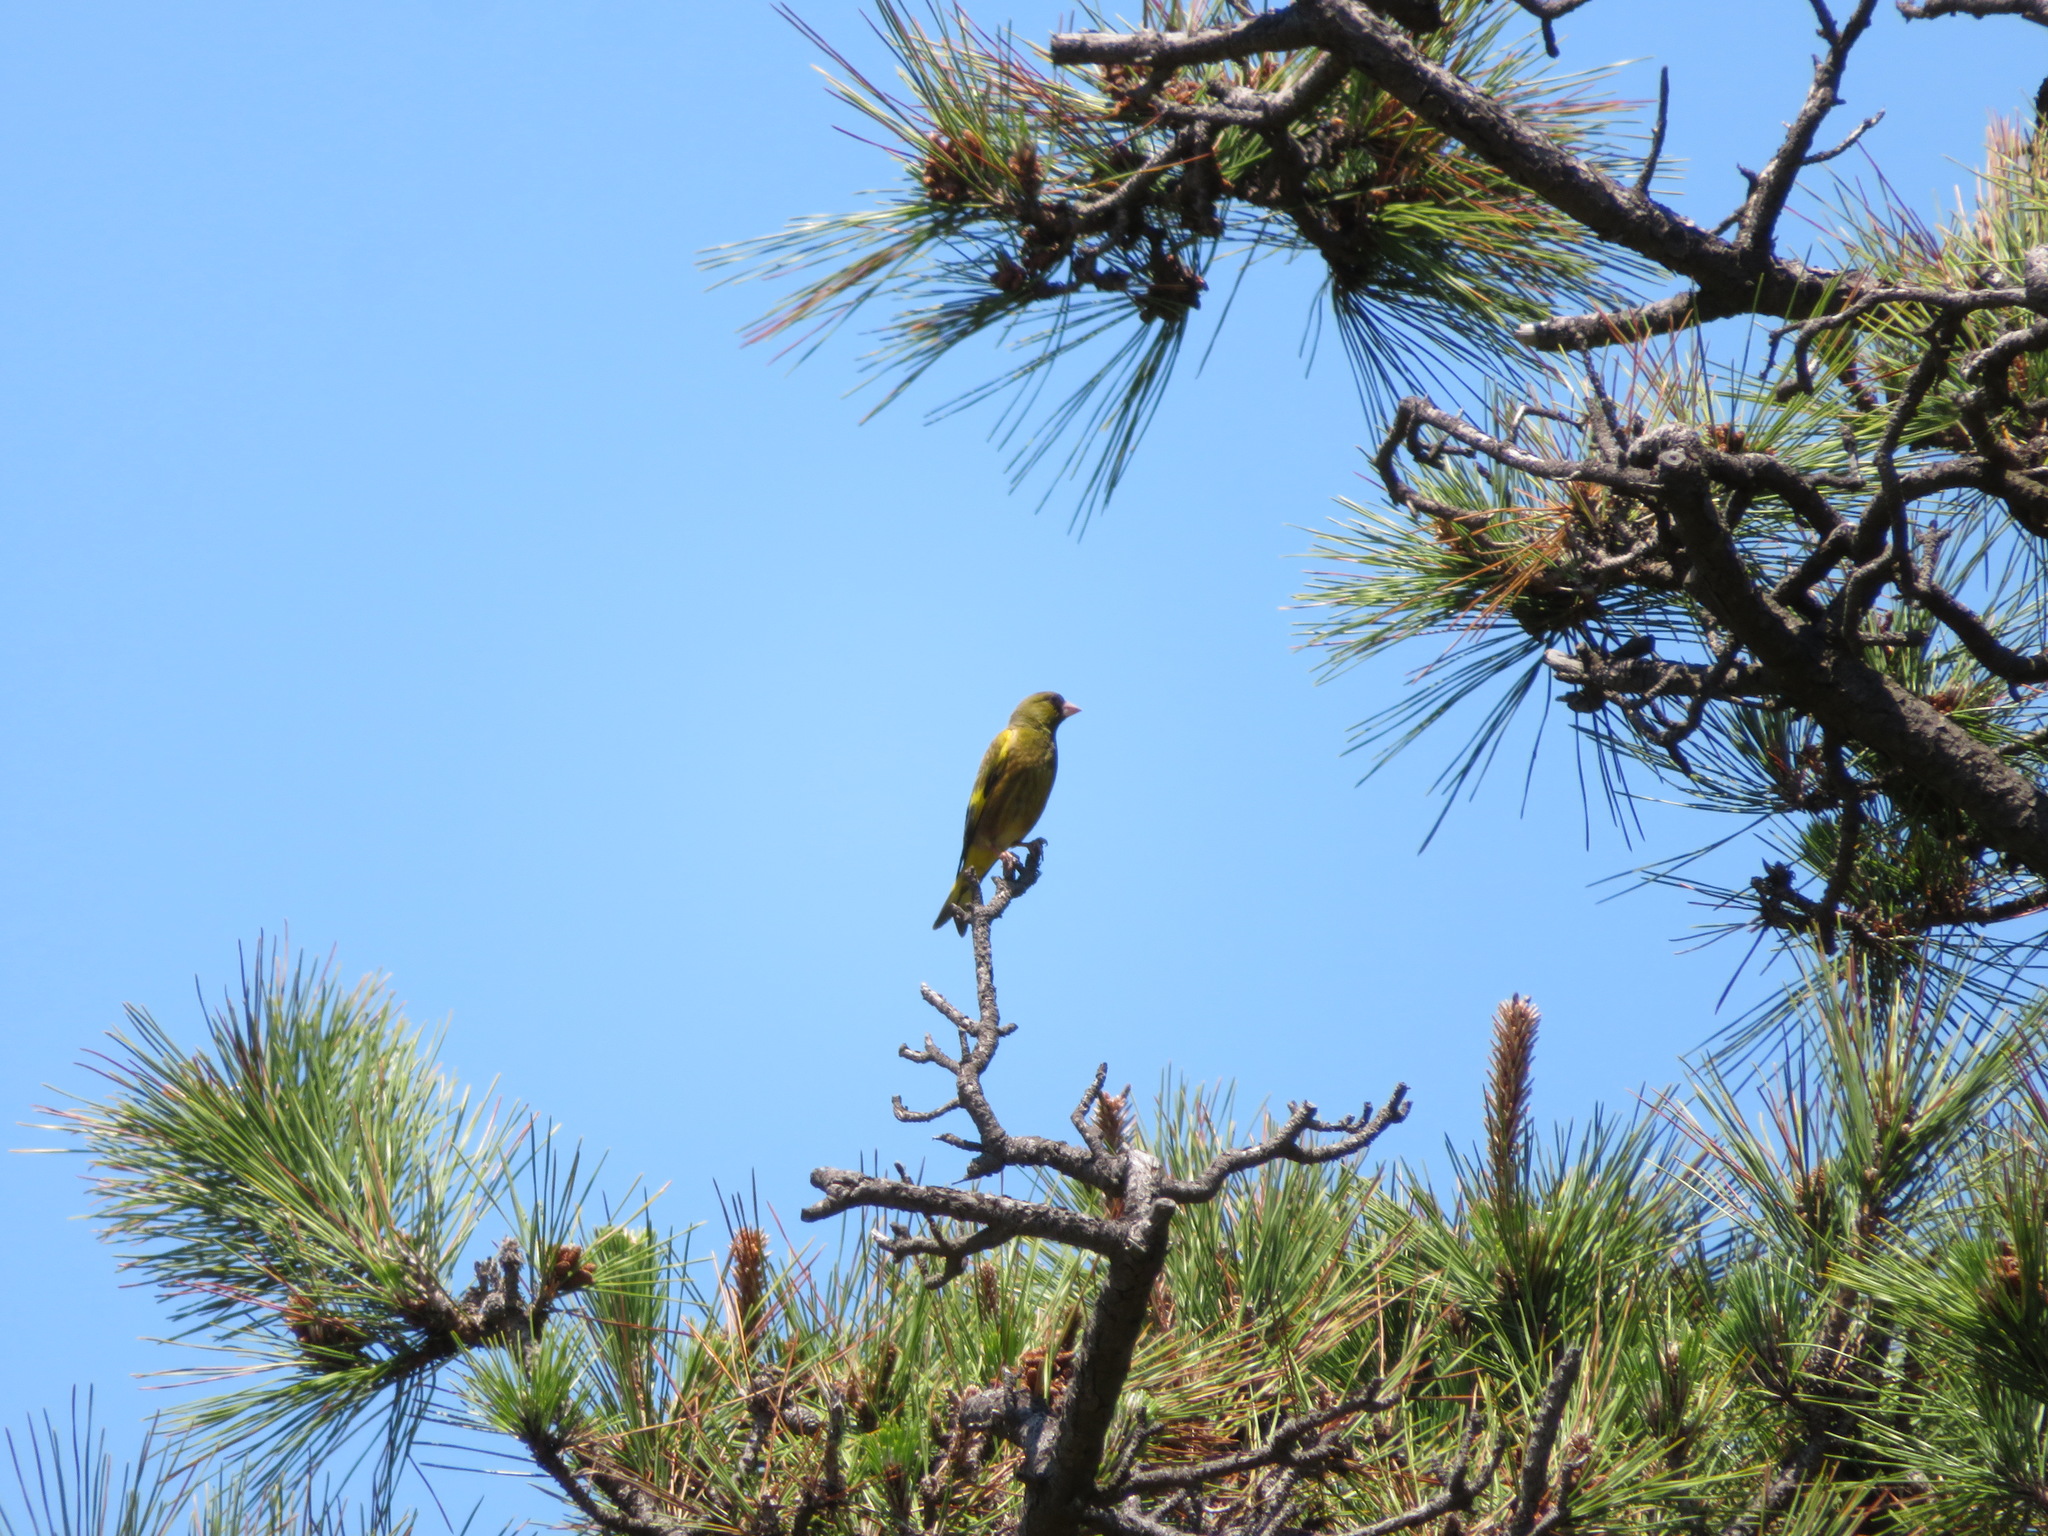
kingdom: Plantae
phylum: Tracheophyta
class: Liliopsida
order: Poales
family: Poaceae
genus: Chloris
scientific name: Chloris sinica
